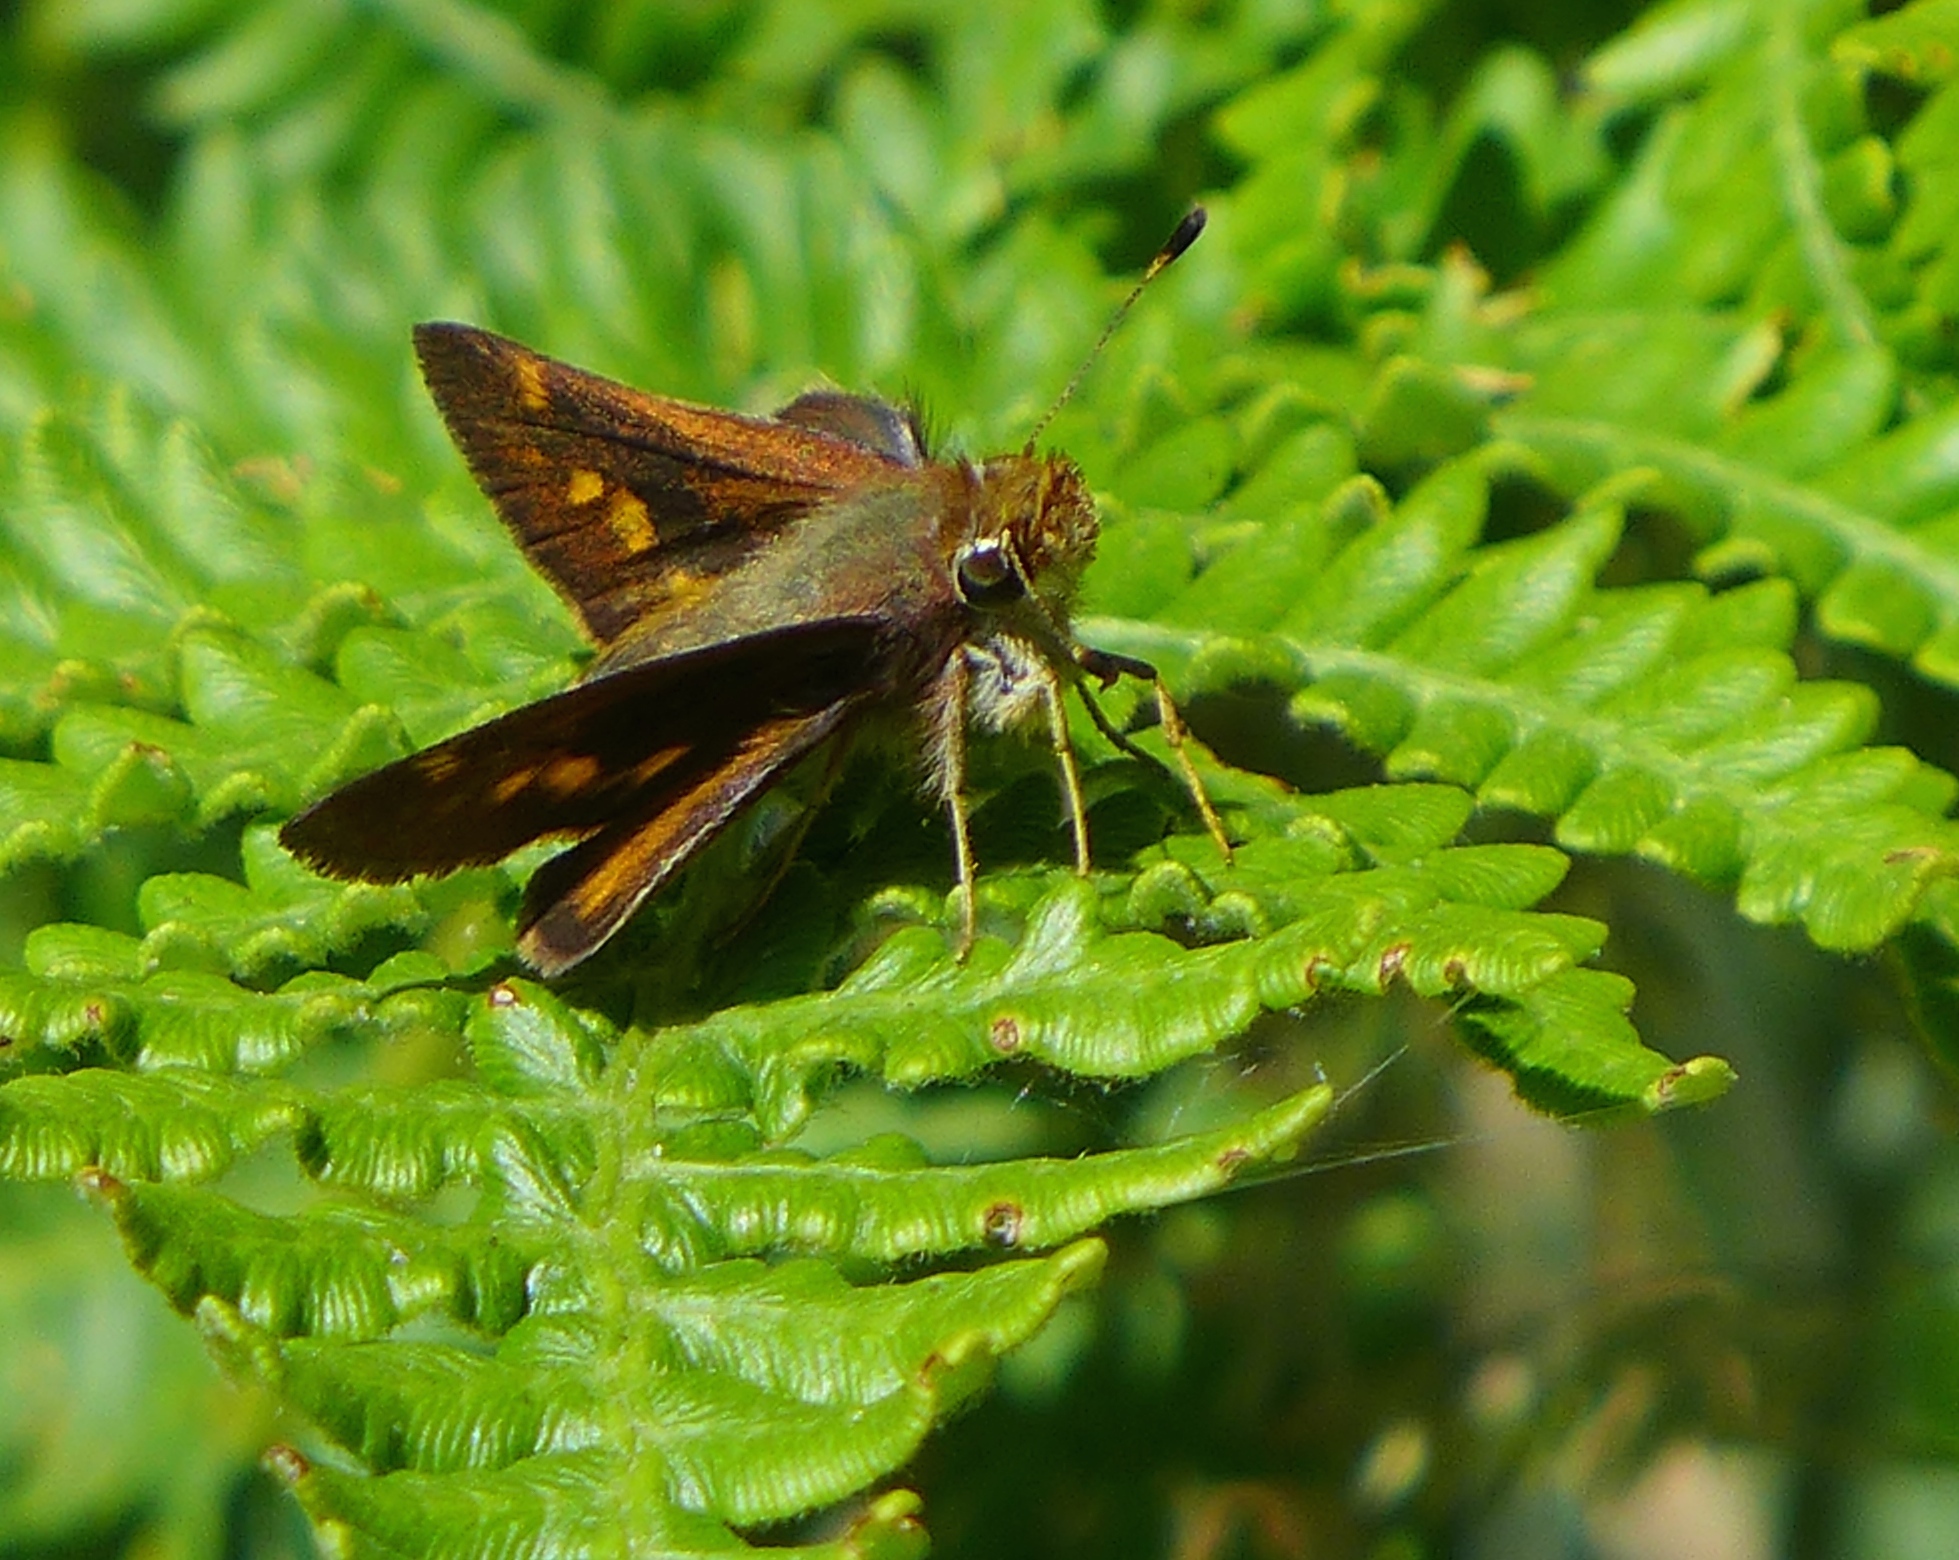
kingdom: Animalia
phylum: Arthropoda
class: Insecta
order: Lepidoptera
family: Hesperiidae
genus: Lon
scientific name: Lon melane
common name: Umber skipper
